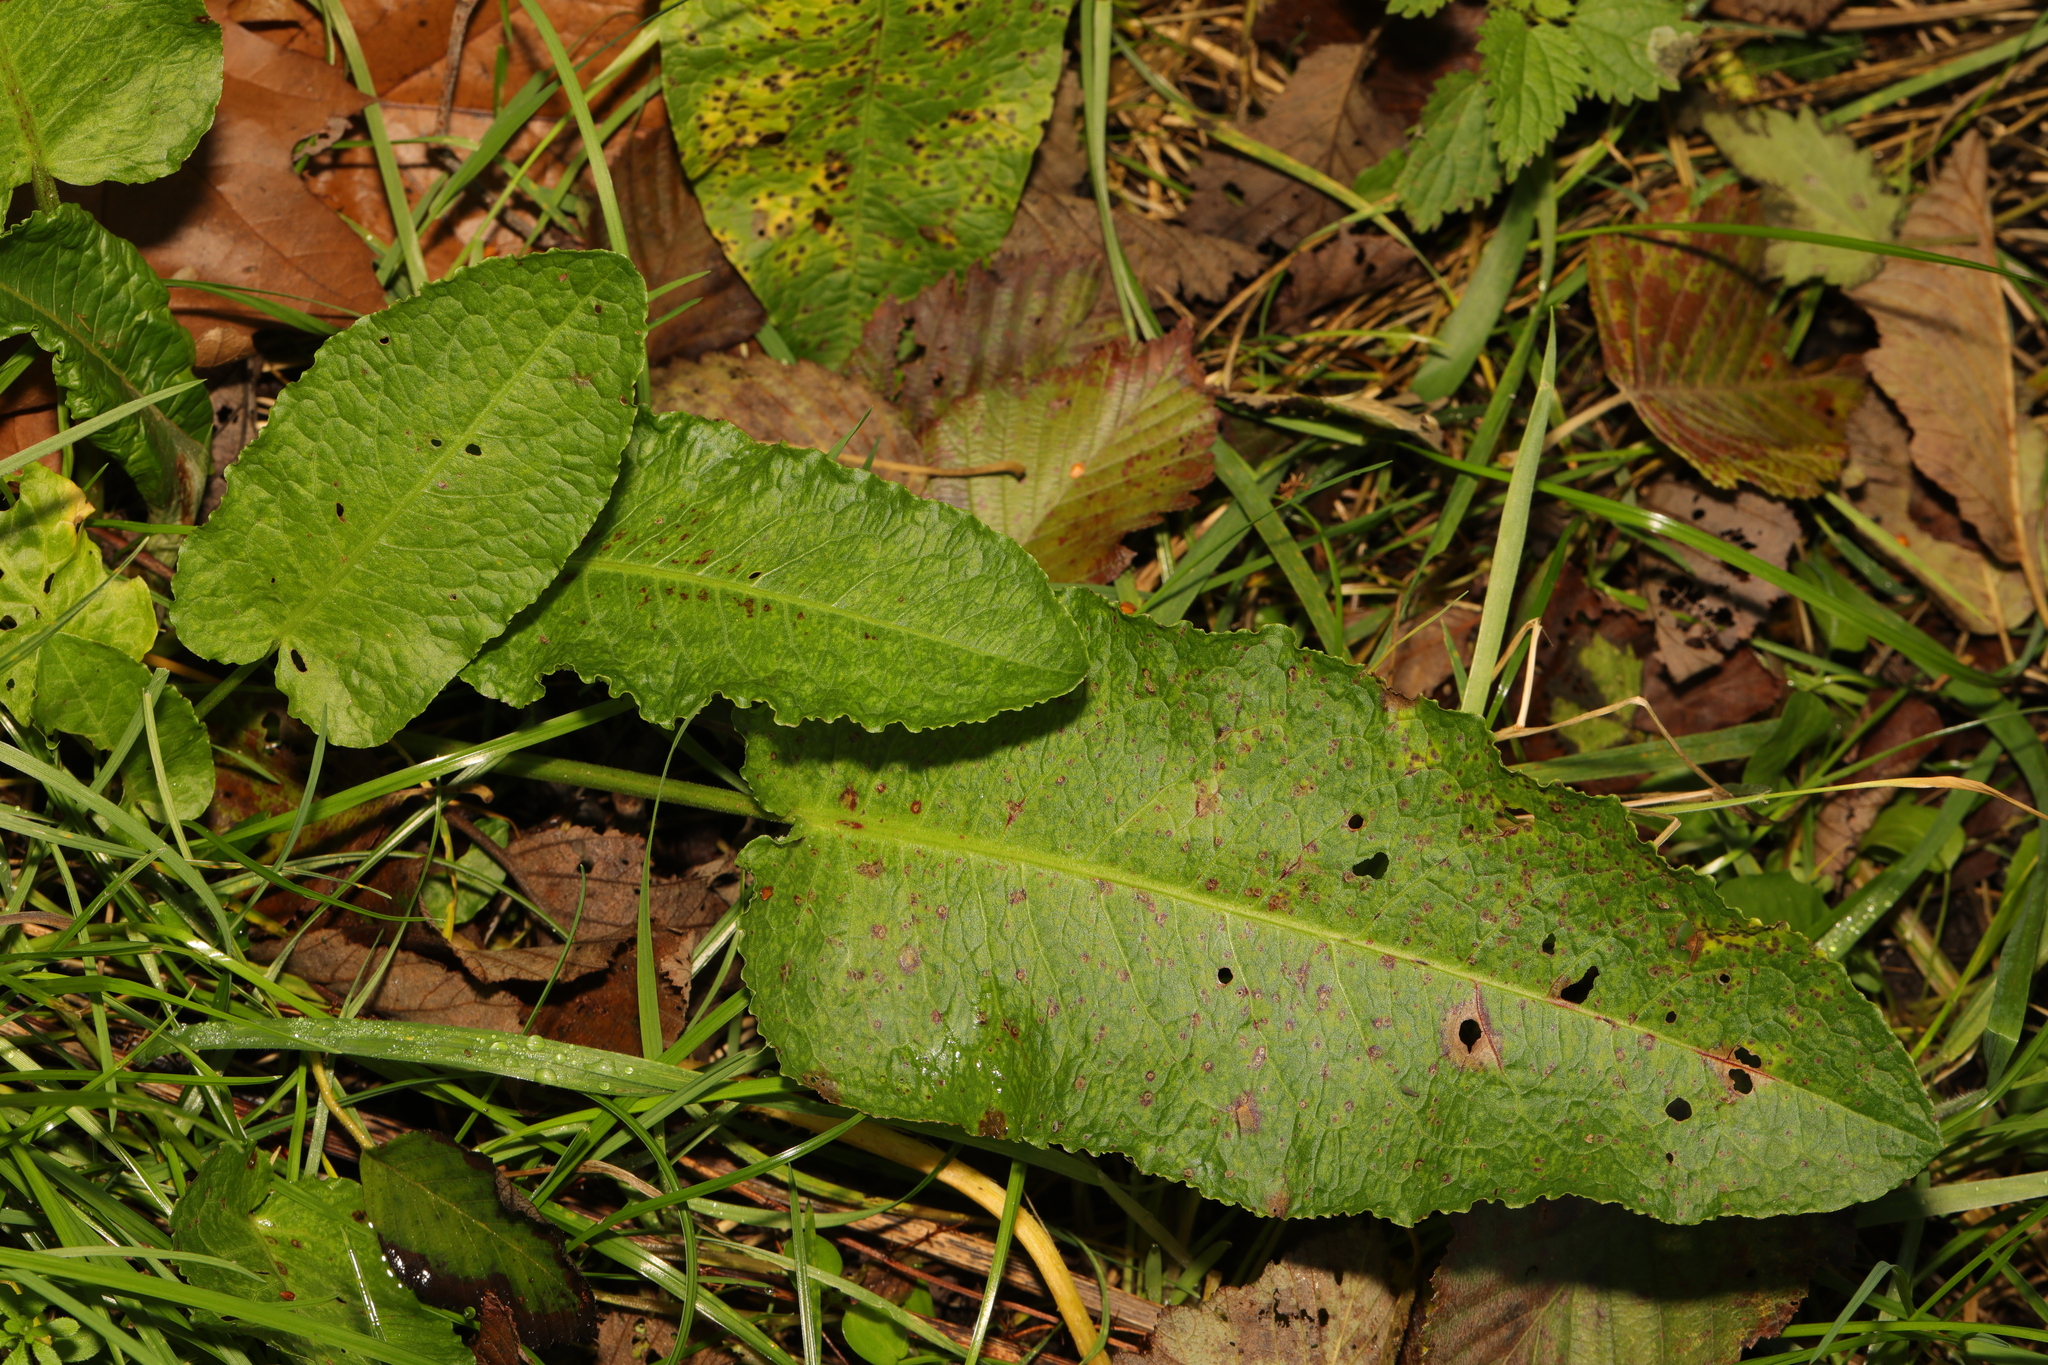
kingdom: Plantae
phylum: Tracheophyta
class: Magnoliopsida
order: Caryophyllales
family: Polygonaceae
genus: Rumex
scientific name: Rumex obtusifolius
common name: Bitter dock
